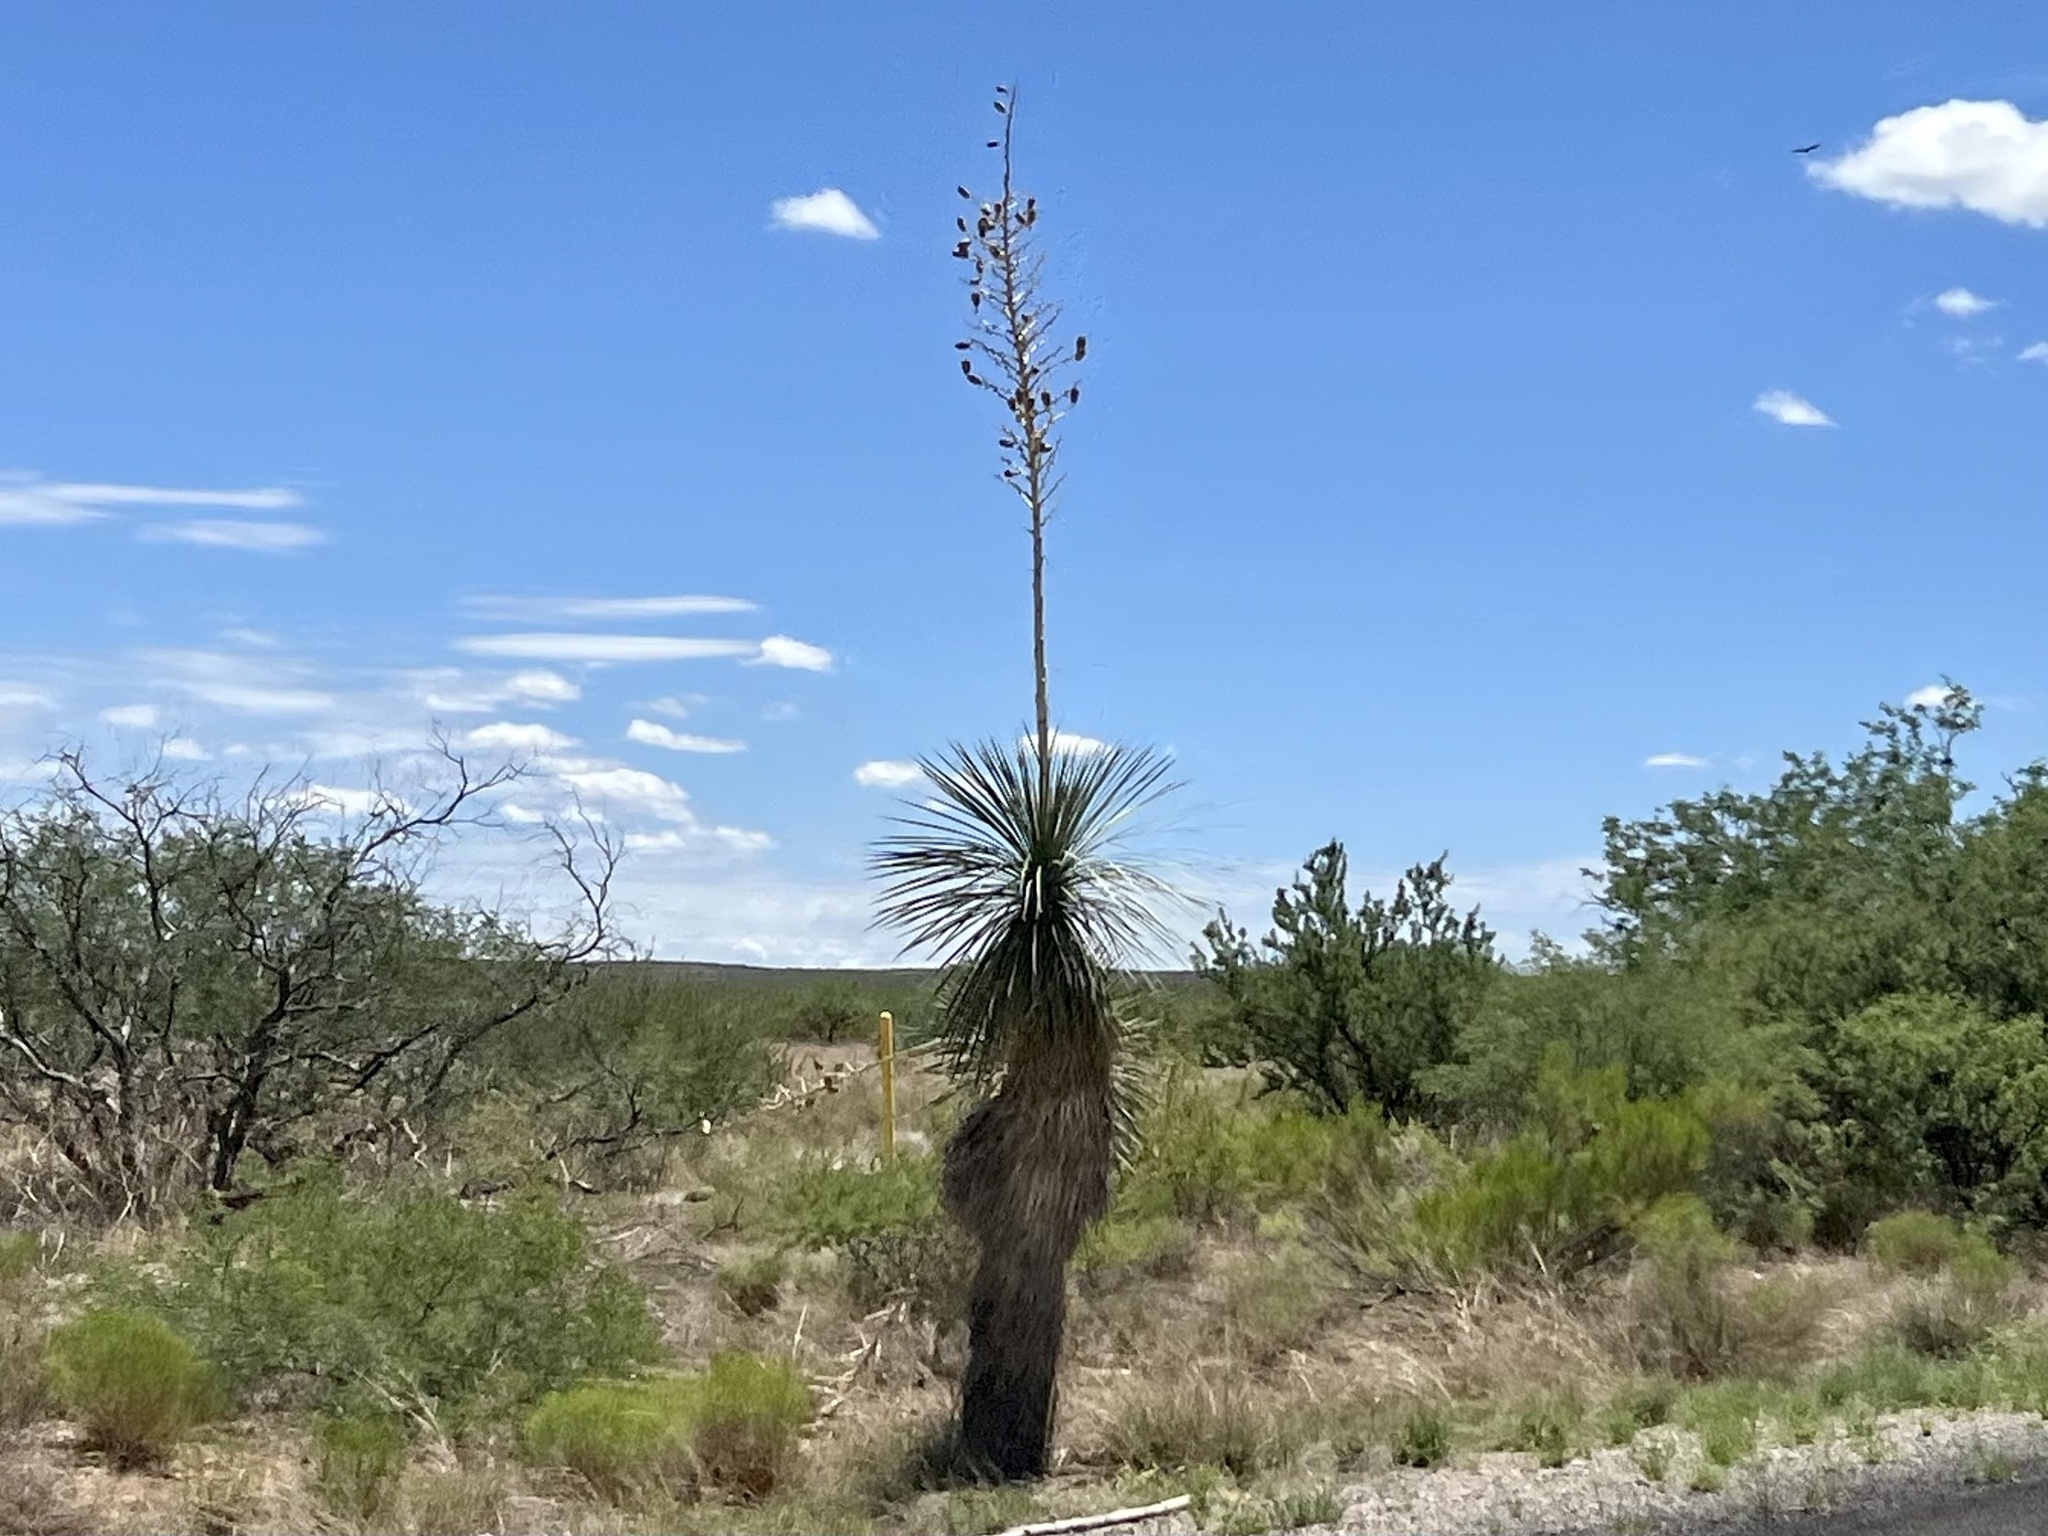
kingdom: Plantae
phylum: Tracheophyta
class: Liliopsida
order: Asparagales
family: Asparagaceae
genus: Yucca
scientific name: Yucca elata
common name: Palmella
